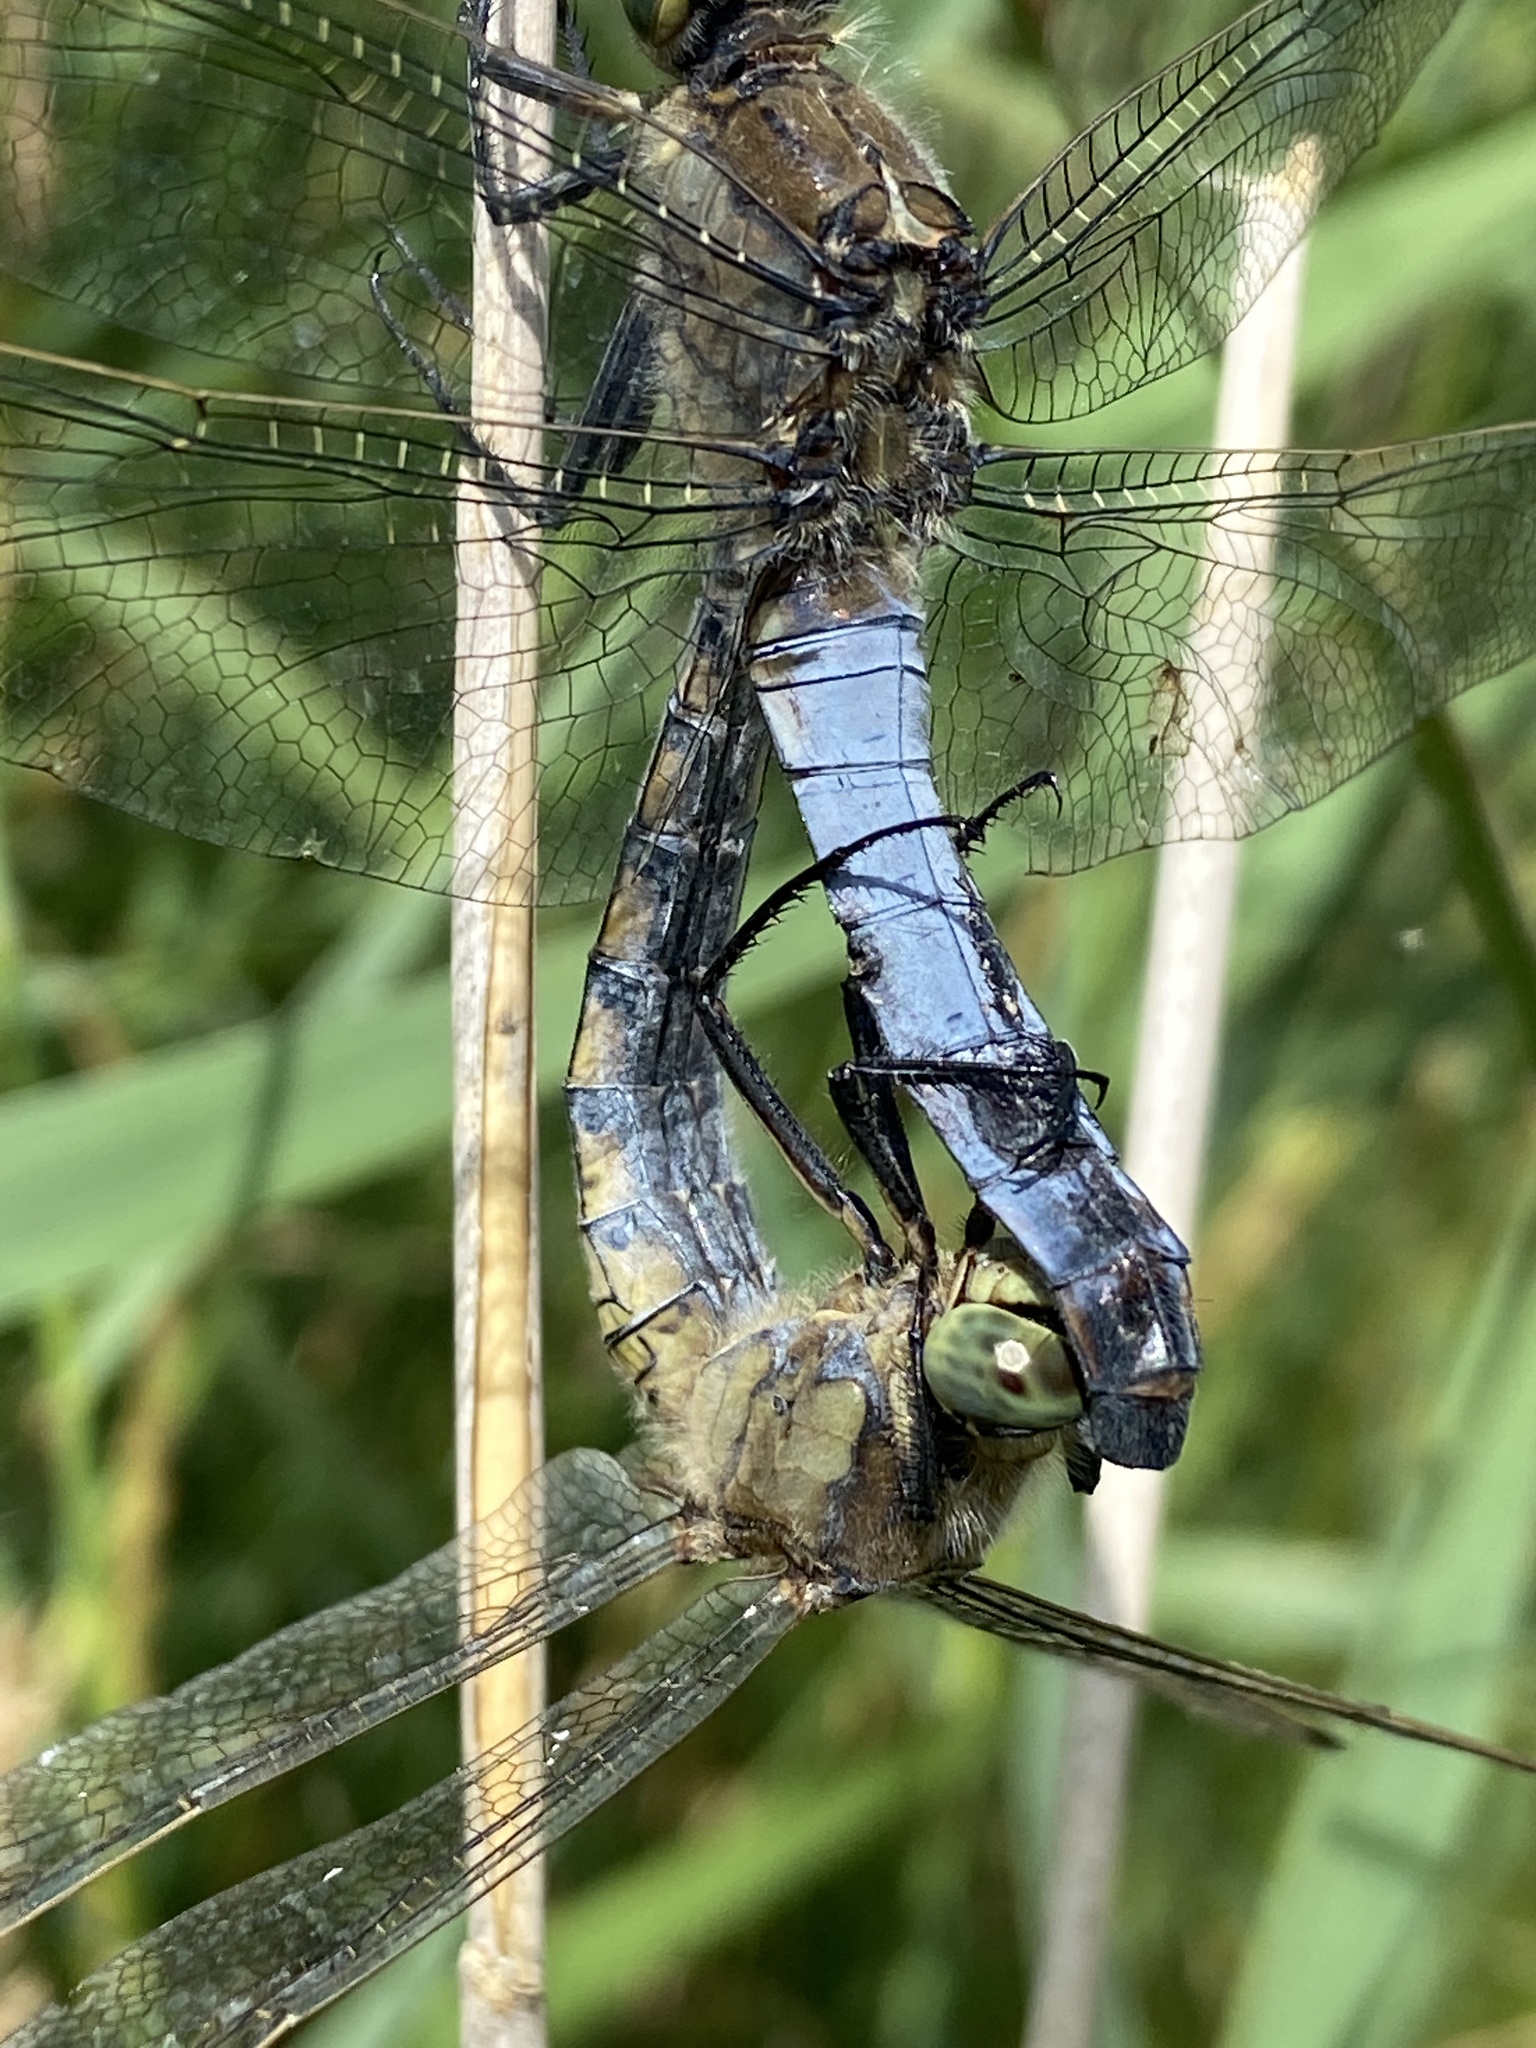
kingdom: Animalia
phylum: Arthropoda
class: Insecta
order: Odonata
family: Libellulidae
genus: Orthetrum
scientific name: Orthetrum cancellatum
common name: Black-tailed skimmer
